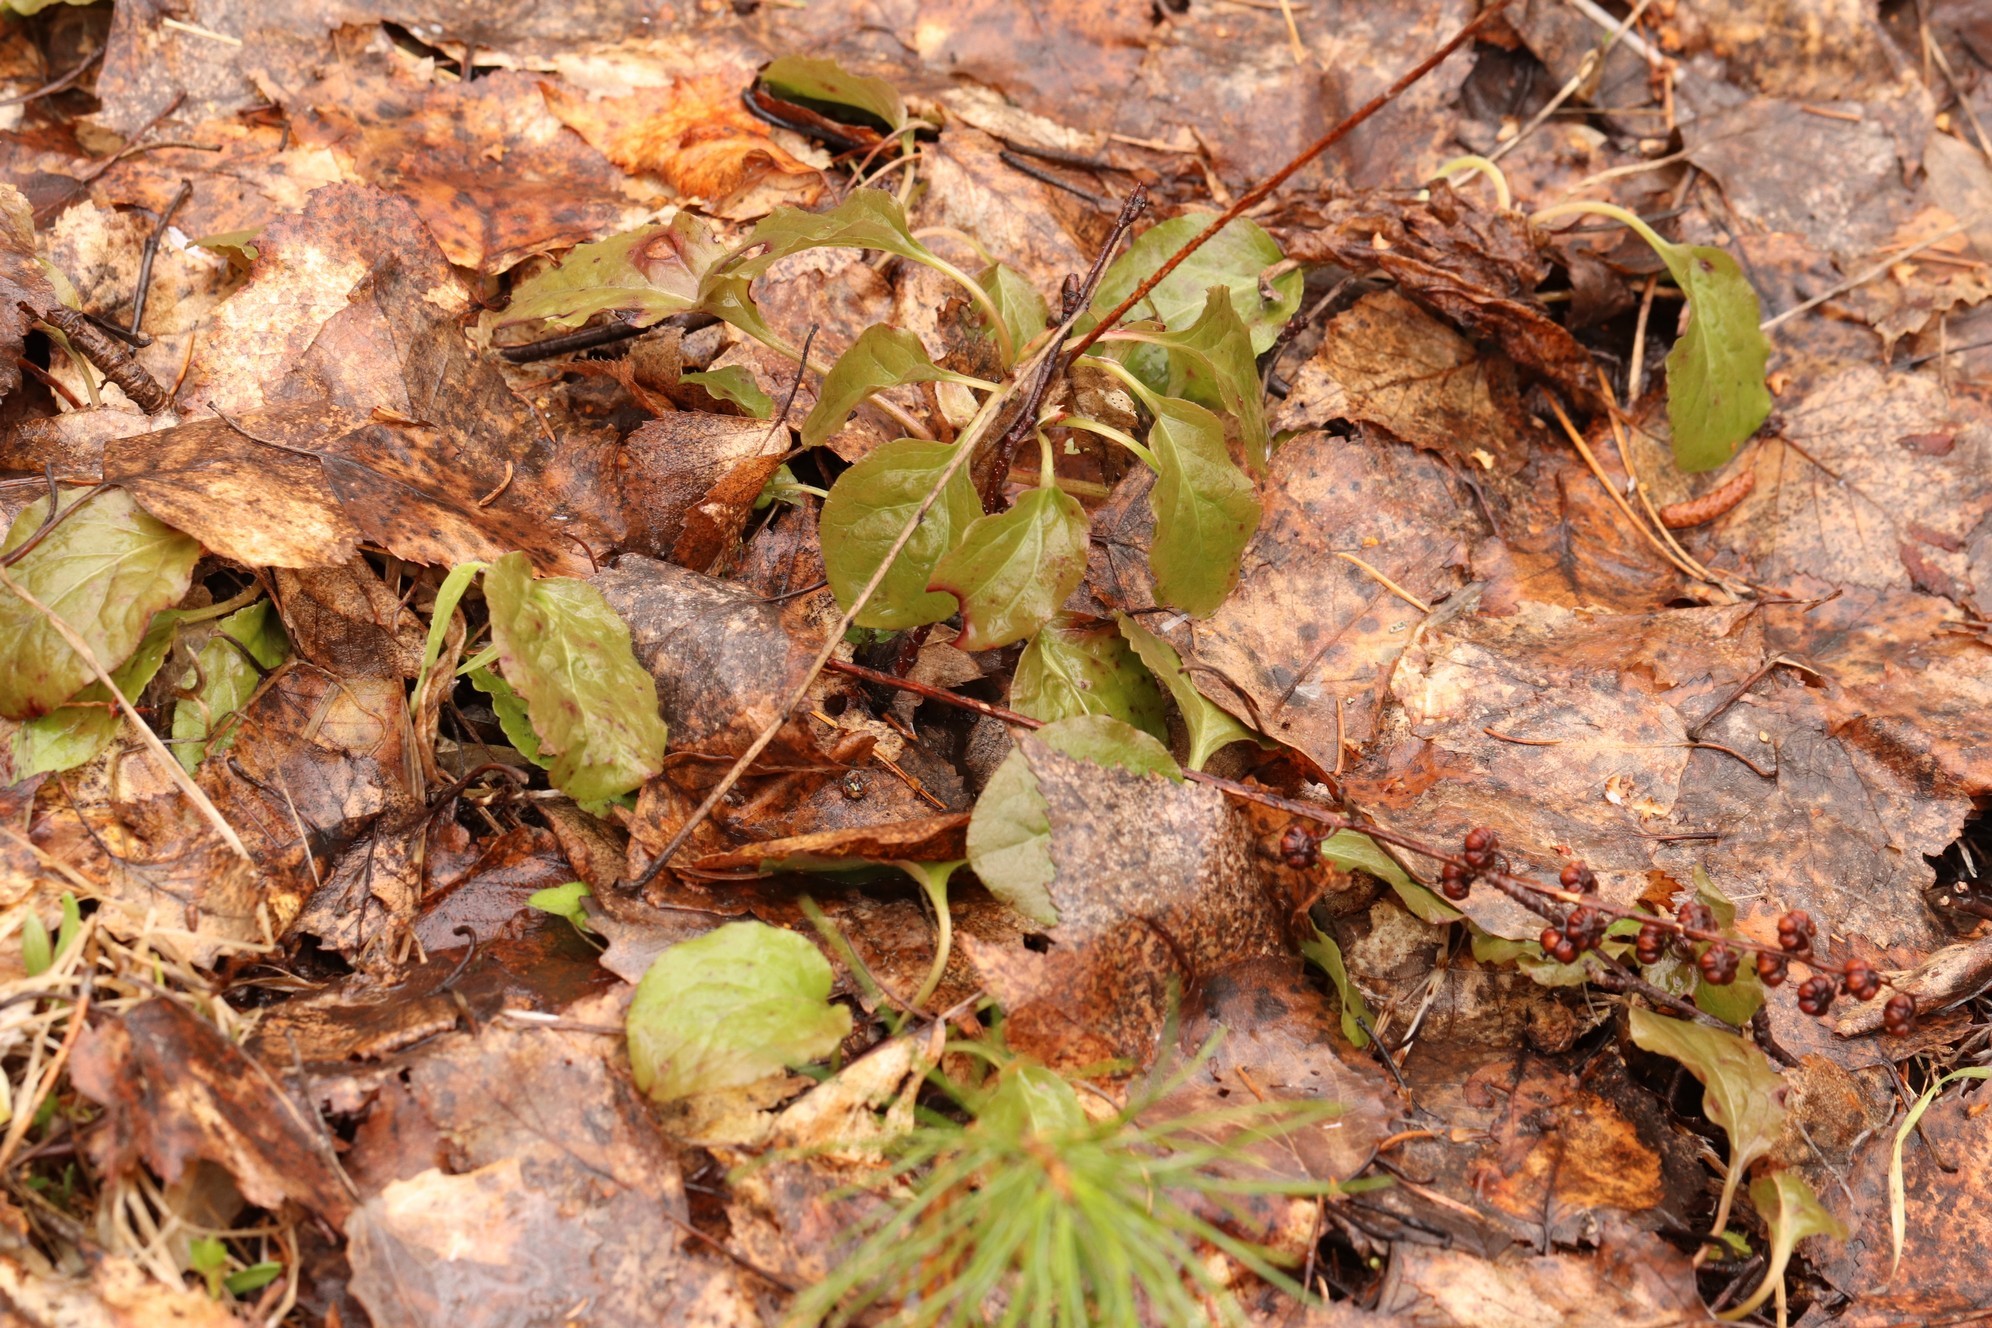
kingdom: Plantae
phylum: Tracheophyta
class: Magnoliopsida
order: Ericales
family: Ericaceae
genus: Orthilia
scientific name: Orthilia secunda
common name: One-sided orthilia
